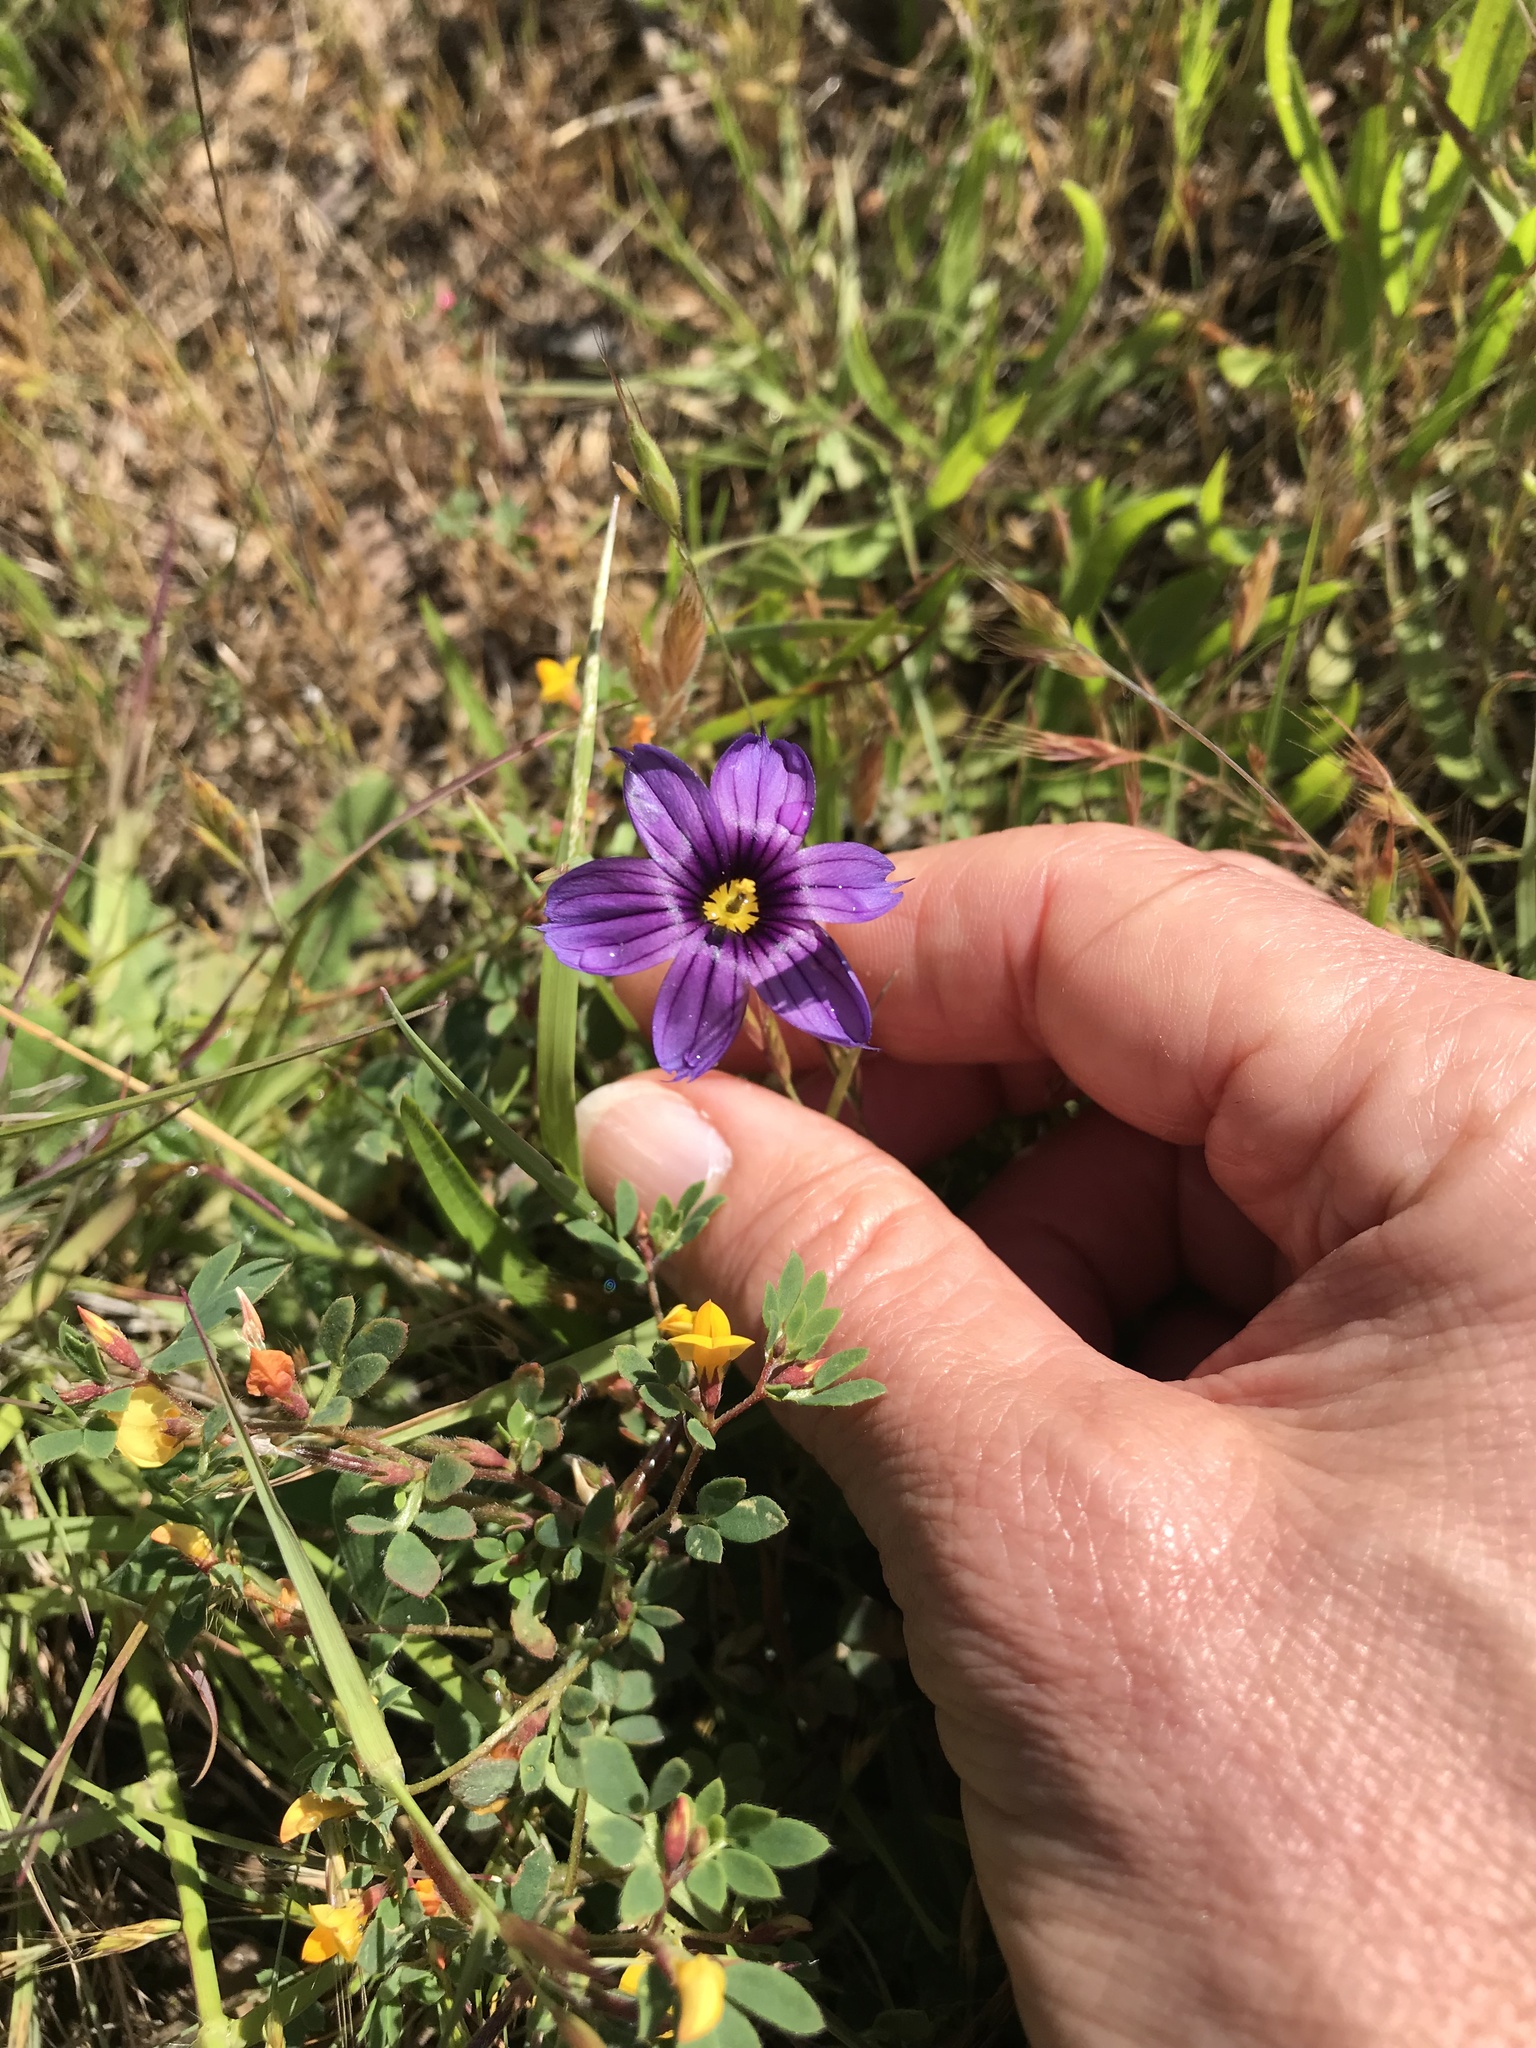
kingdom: Plantae
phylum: Tracheophyta
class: Liliopsida
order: Asparagales
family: Iridaceae
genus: Sisyrinchium
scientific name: Sisyrinchium bellum
